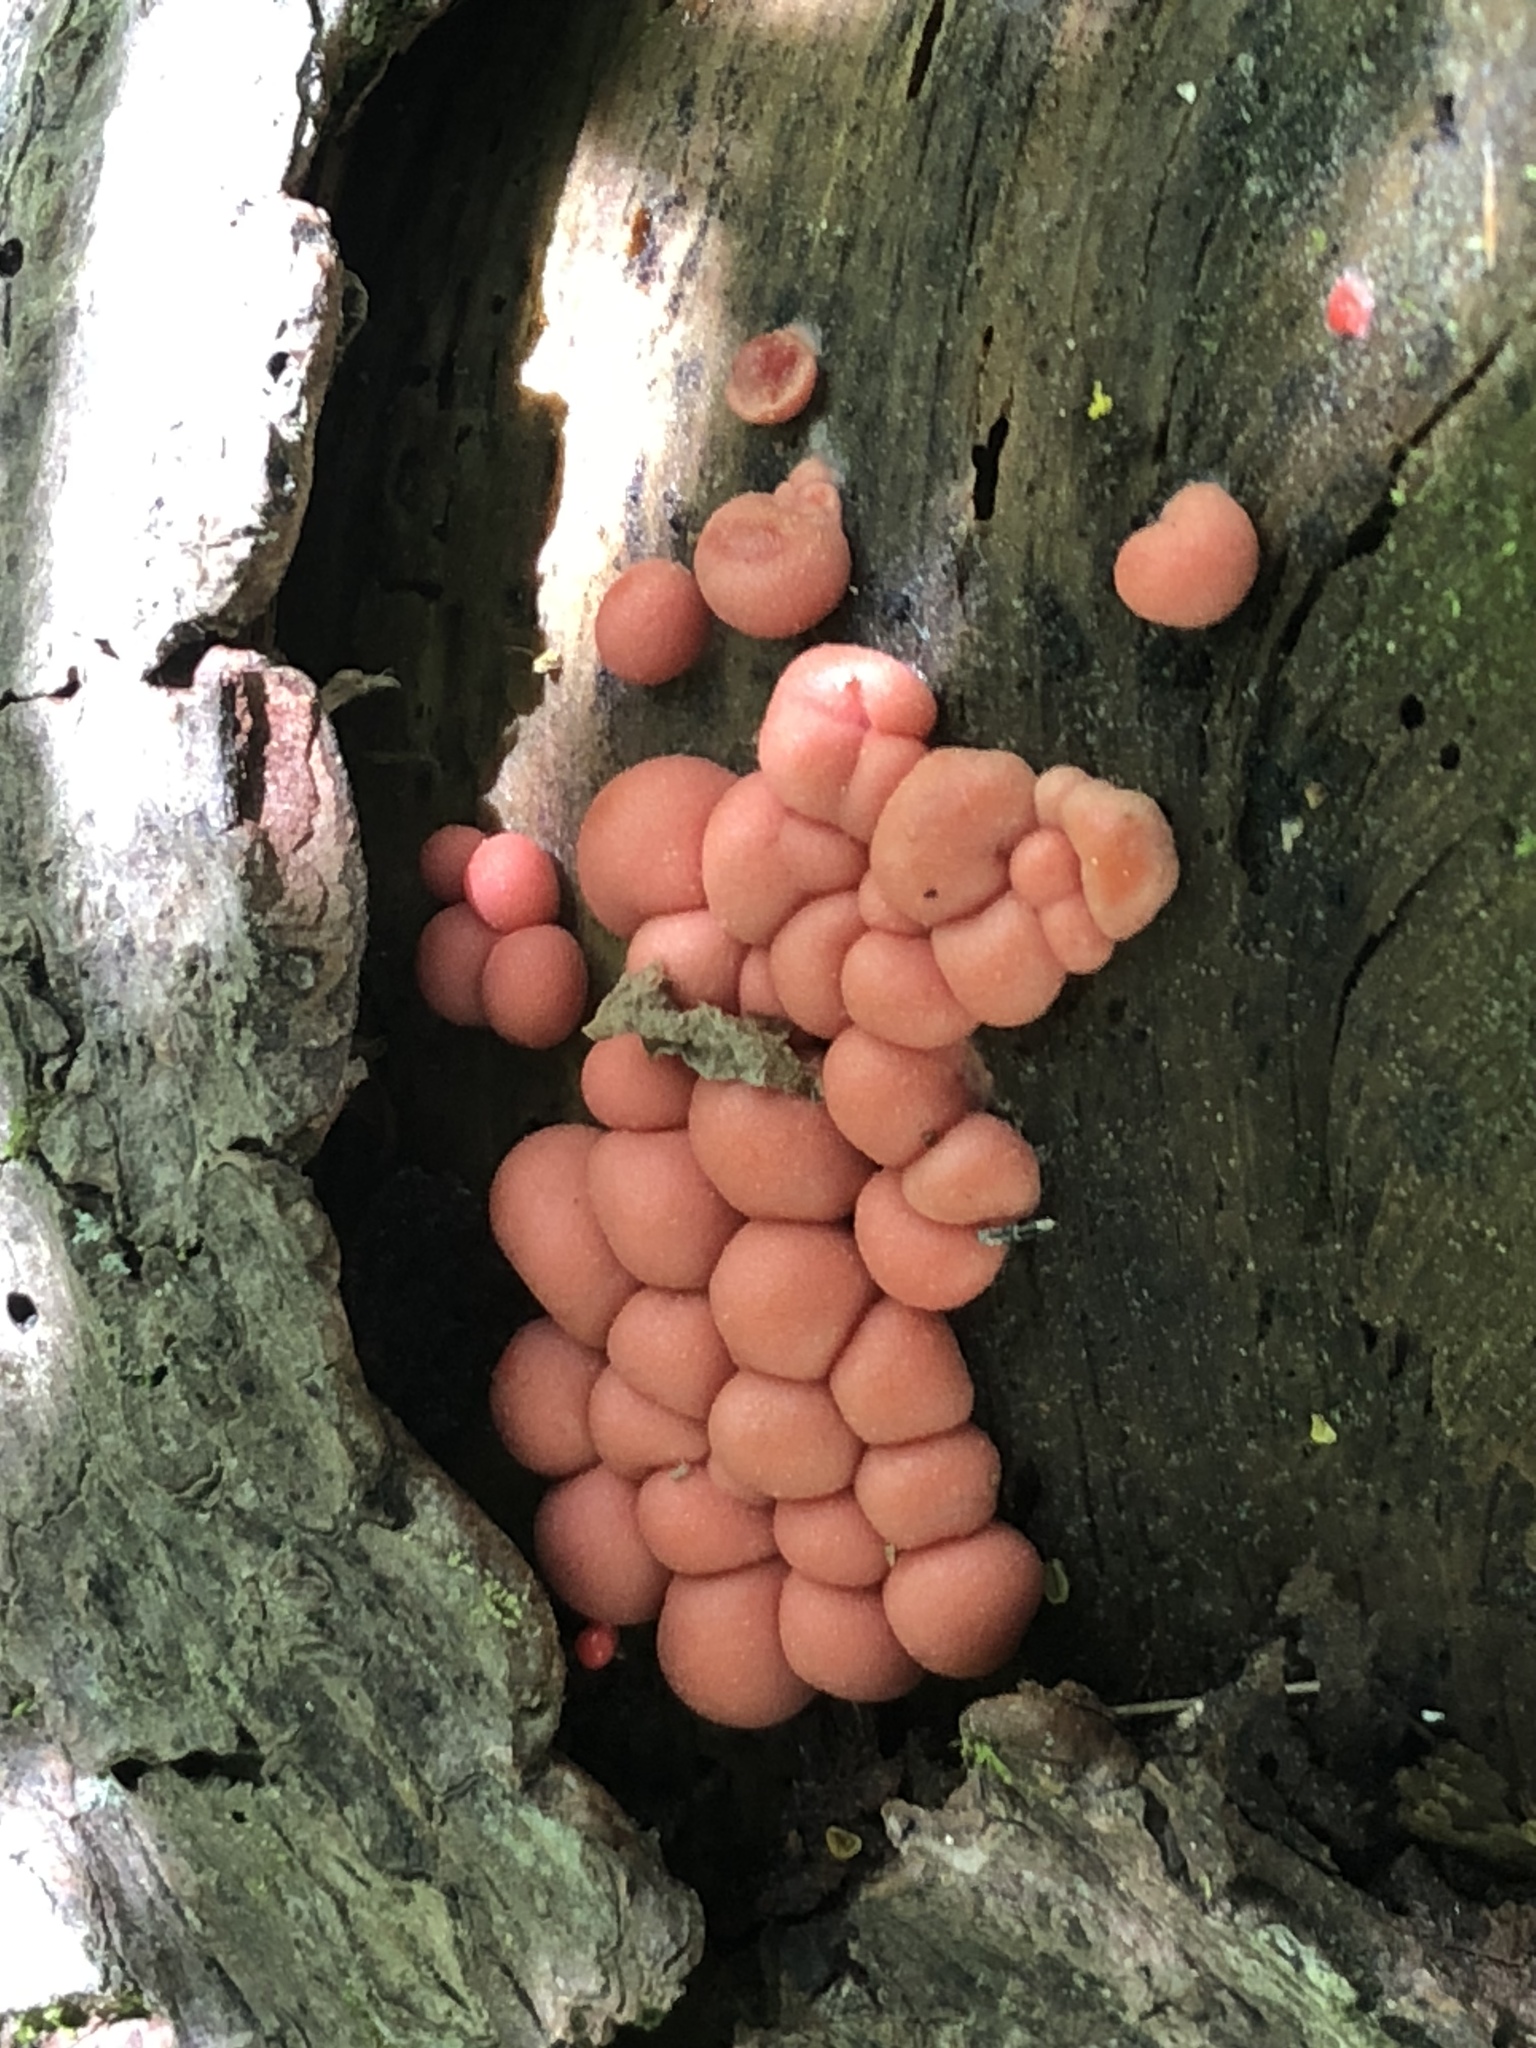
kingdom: Protozoa
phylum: Mycetozoa
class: Myxomycetes
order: Cribrariales
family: Tubiferaceae
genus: Lycogala
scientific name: Lycogala epidendrum
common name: Wolf's milk
